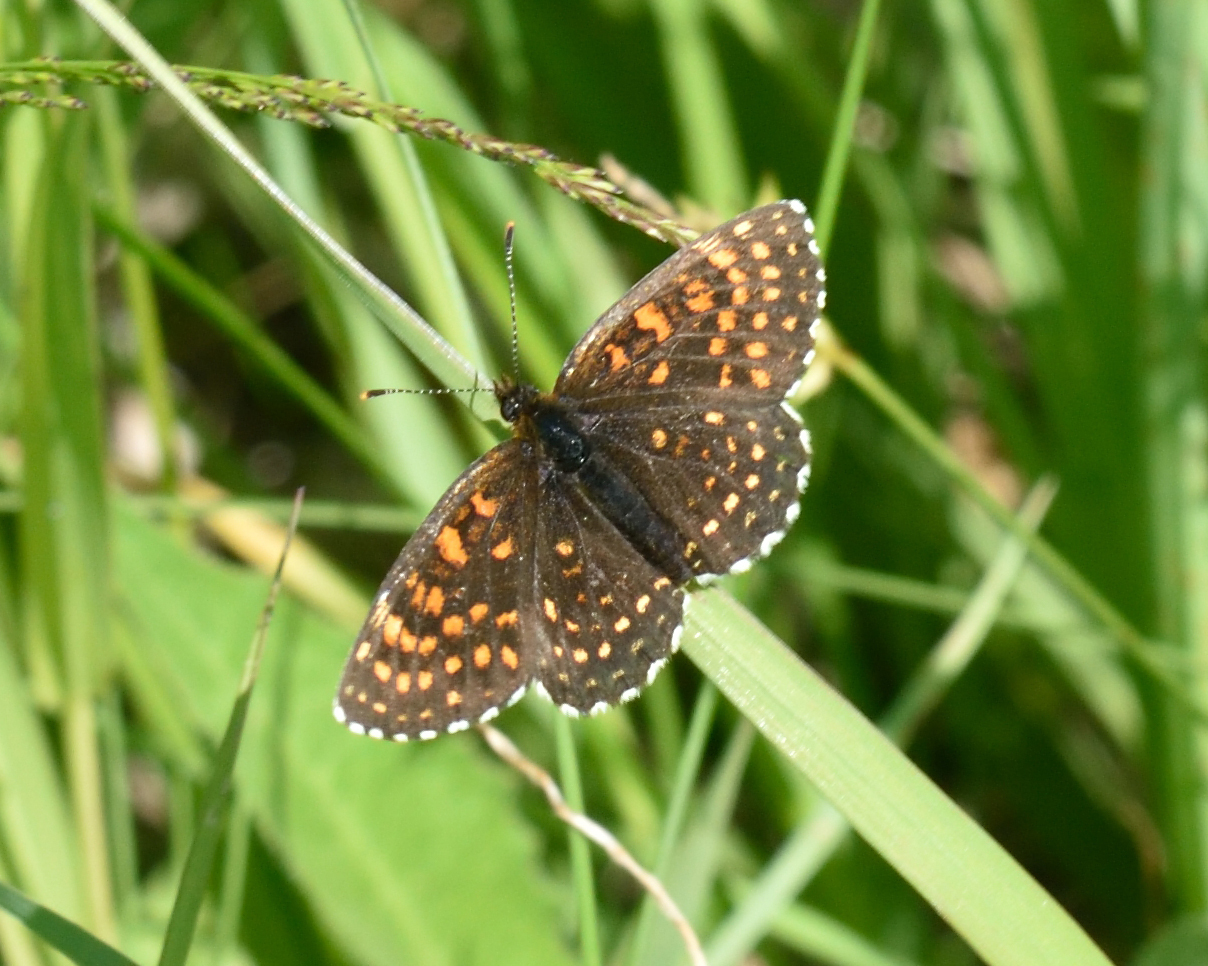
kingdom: Animalia
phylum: Arthropoda
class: Insecta
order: Lepidoptera
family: Nymphalidae
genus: Melitaea
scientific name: Melitaea diamina
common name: False heath fritillary
